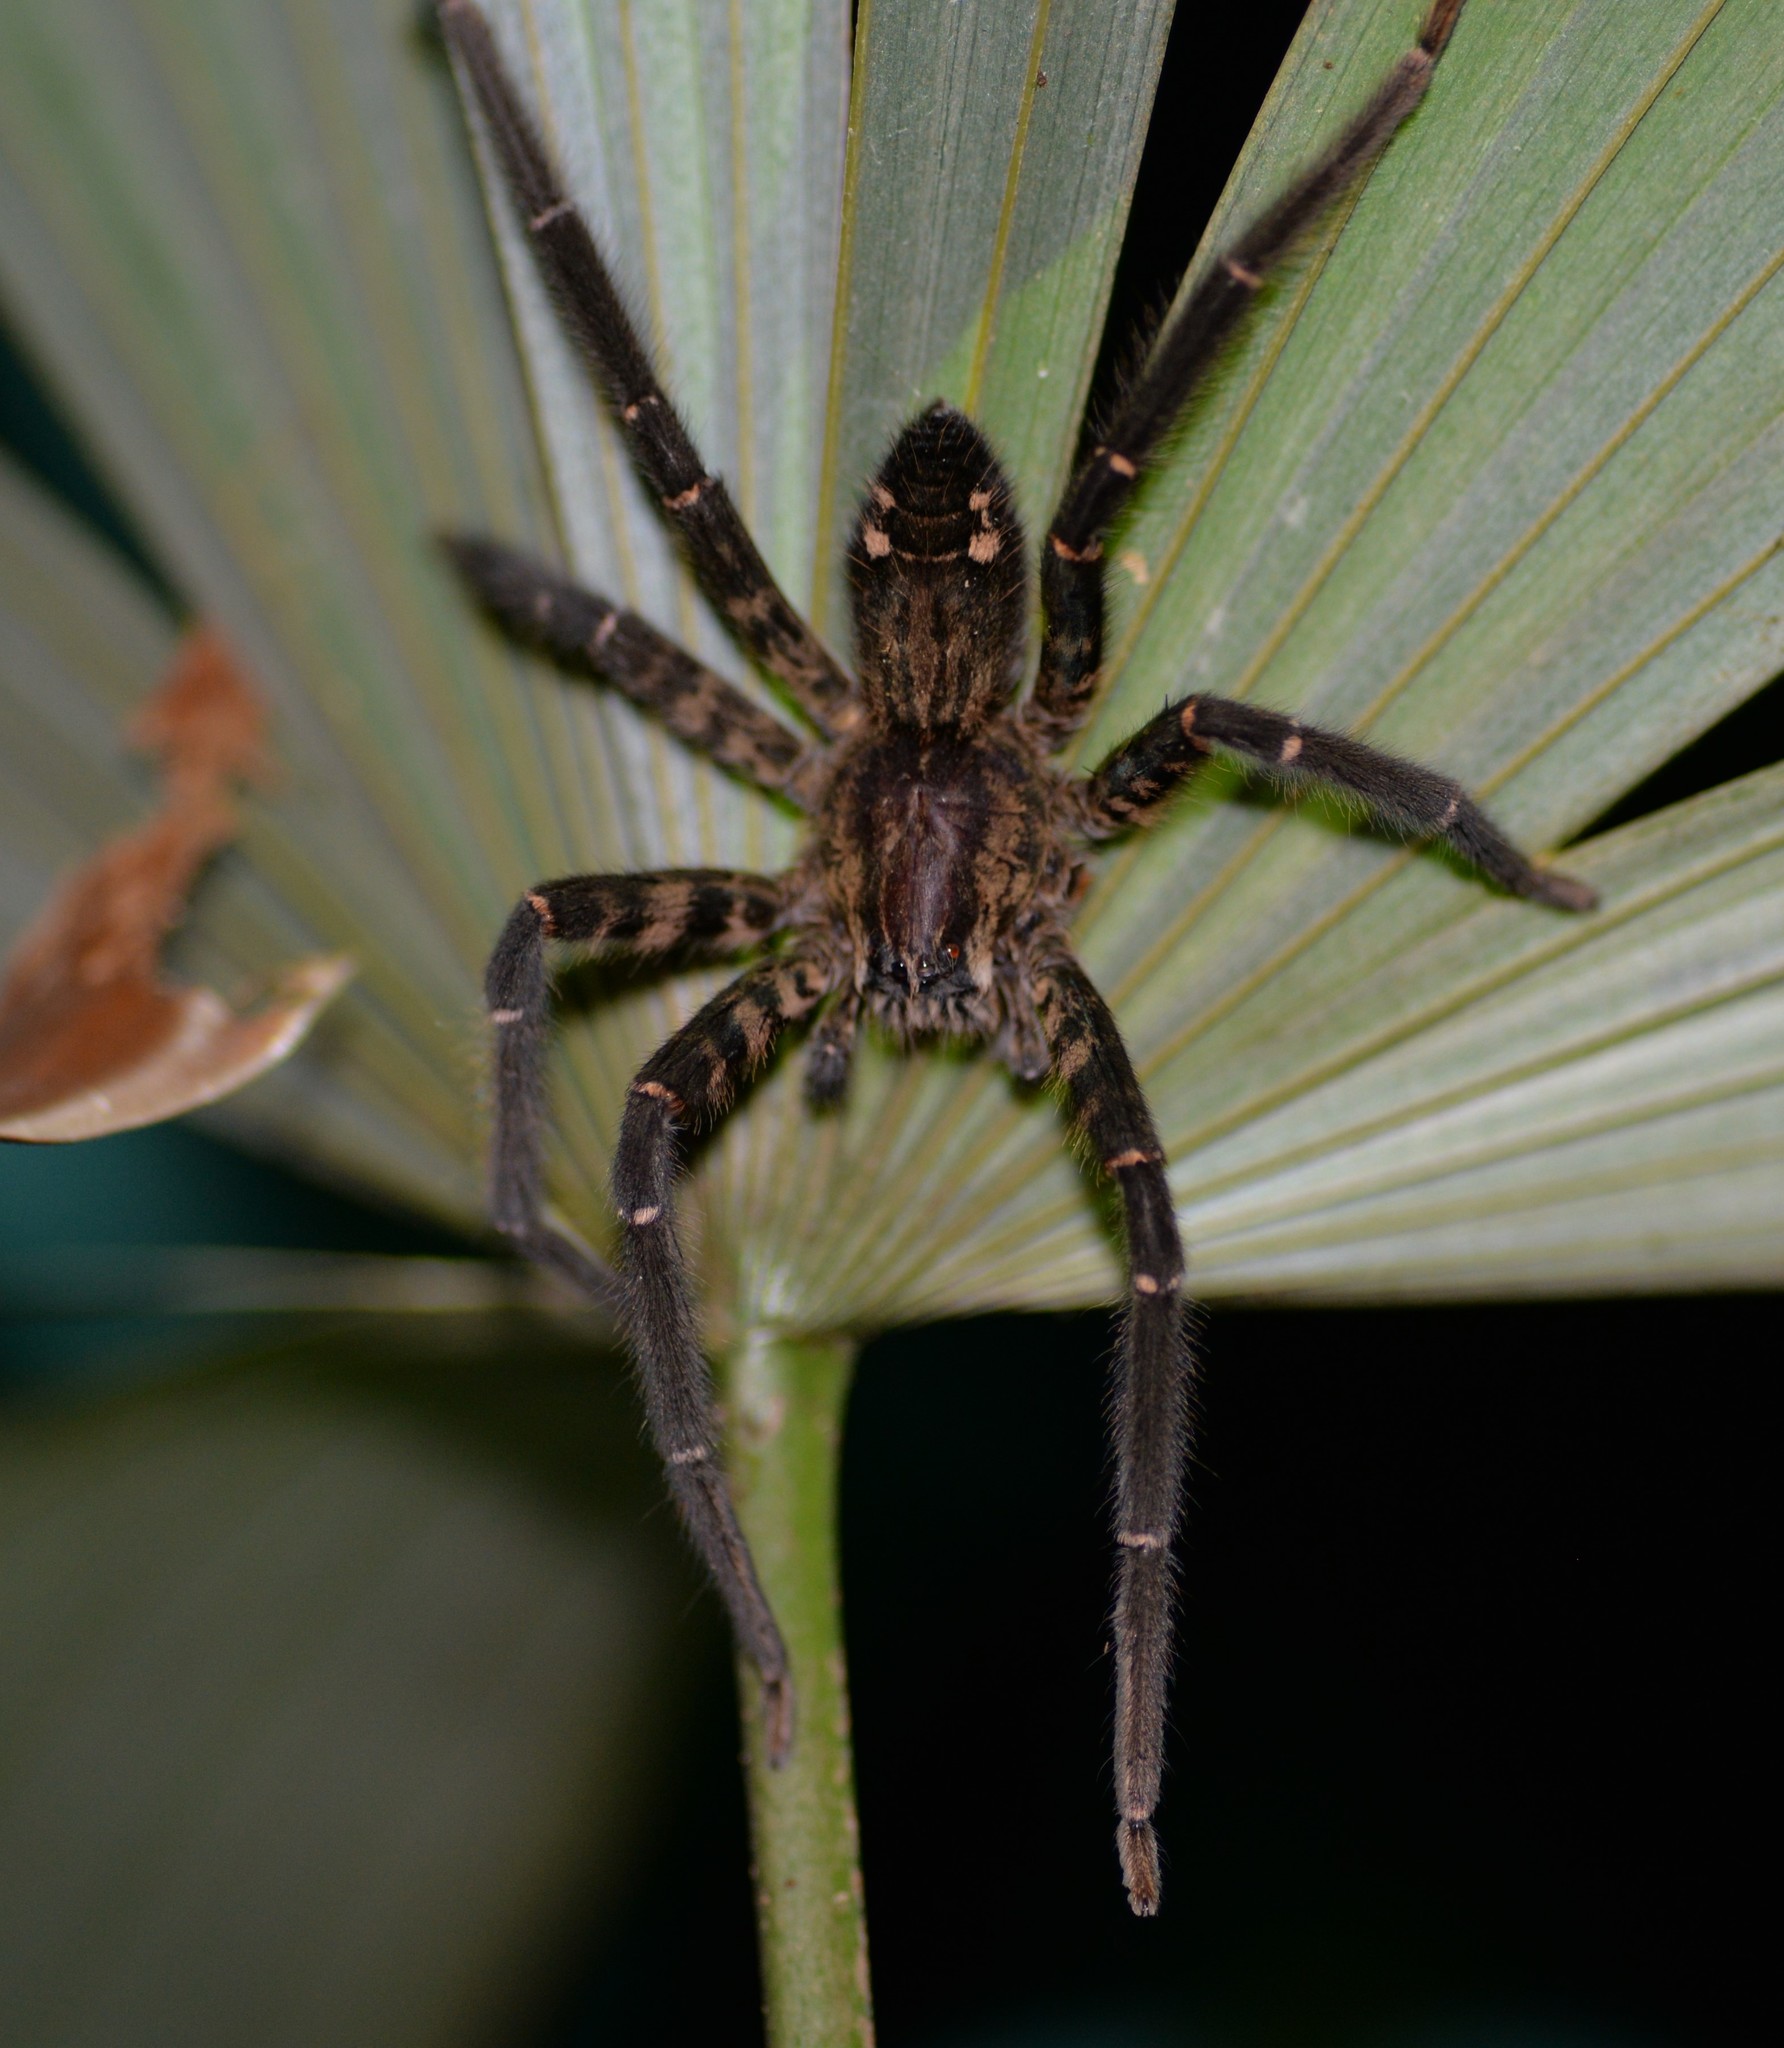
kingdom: Animalia
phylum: Arthropoda
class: Arachnida
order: Araneae
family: Trechaleidae
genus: Cupiennius
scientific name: Cupiennius salei
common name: Wandering spiders
